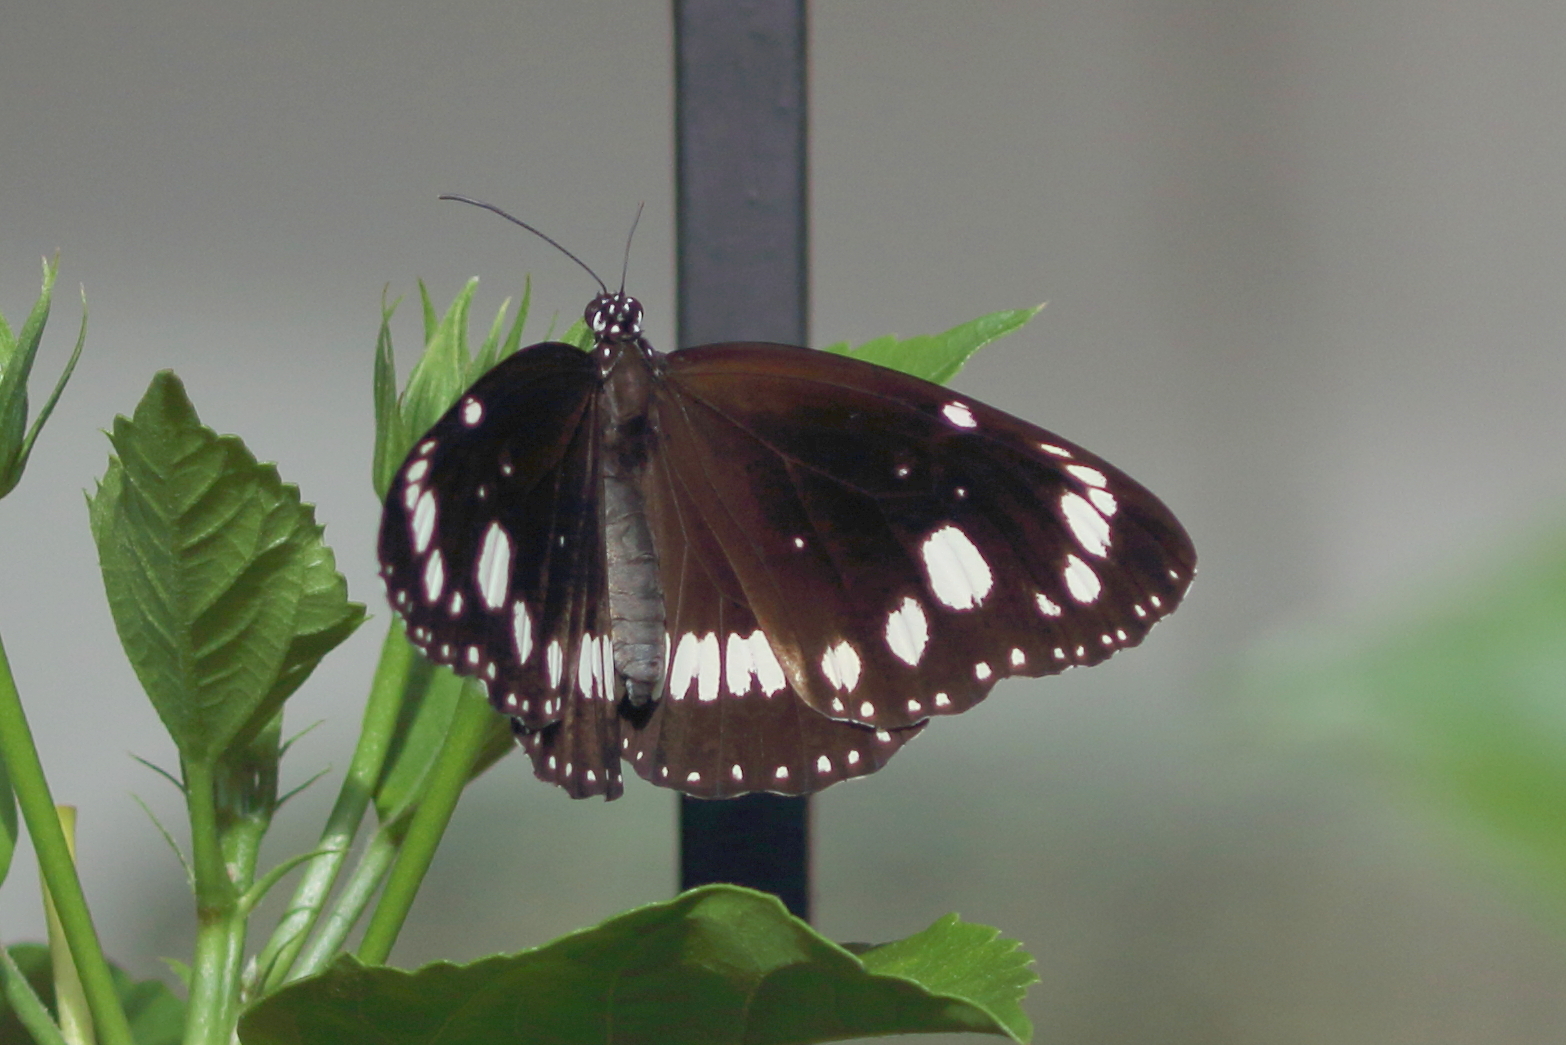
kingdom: Animalia
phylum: Arthropoda
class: Insecta
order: Lepidoptera
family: Nymphalidae
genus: Euploea
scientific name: Euploea core
